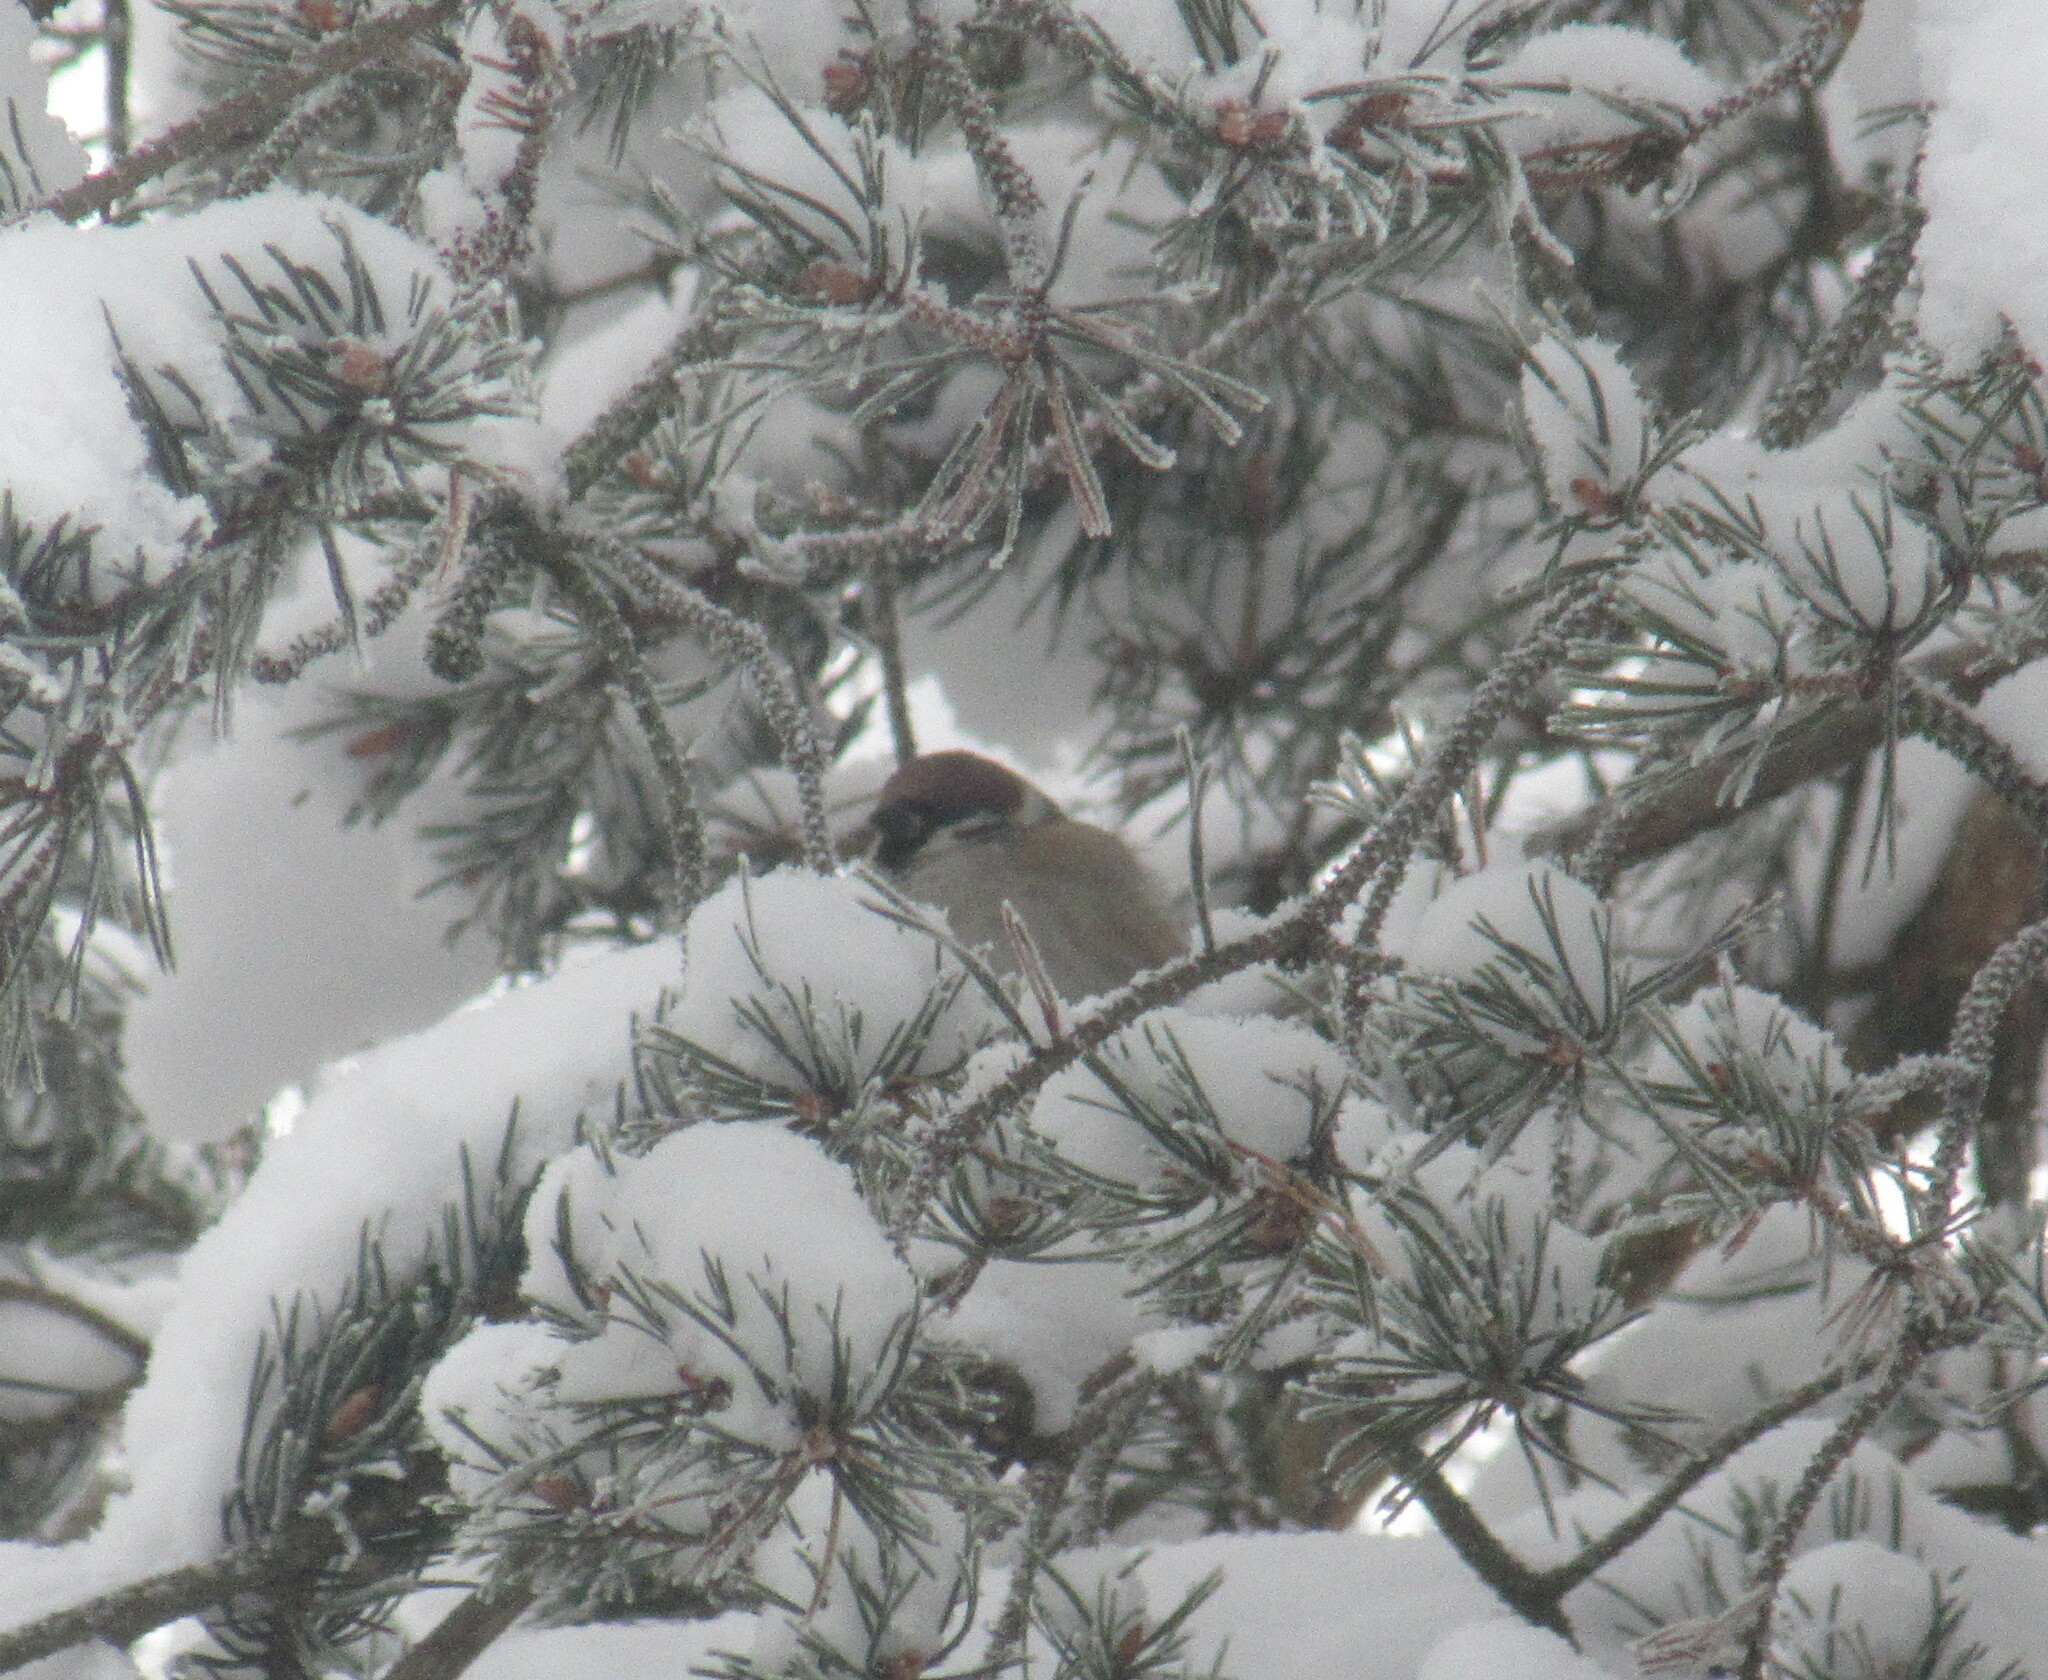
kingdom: Animalia
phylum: Chordata
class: Aves
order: Passeriformes
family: Passeridae
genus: Passer
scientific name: Passer montanus
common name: Eurasian tree sparrow
